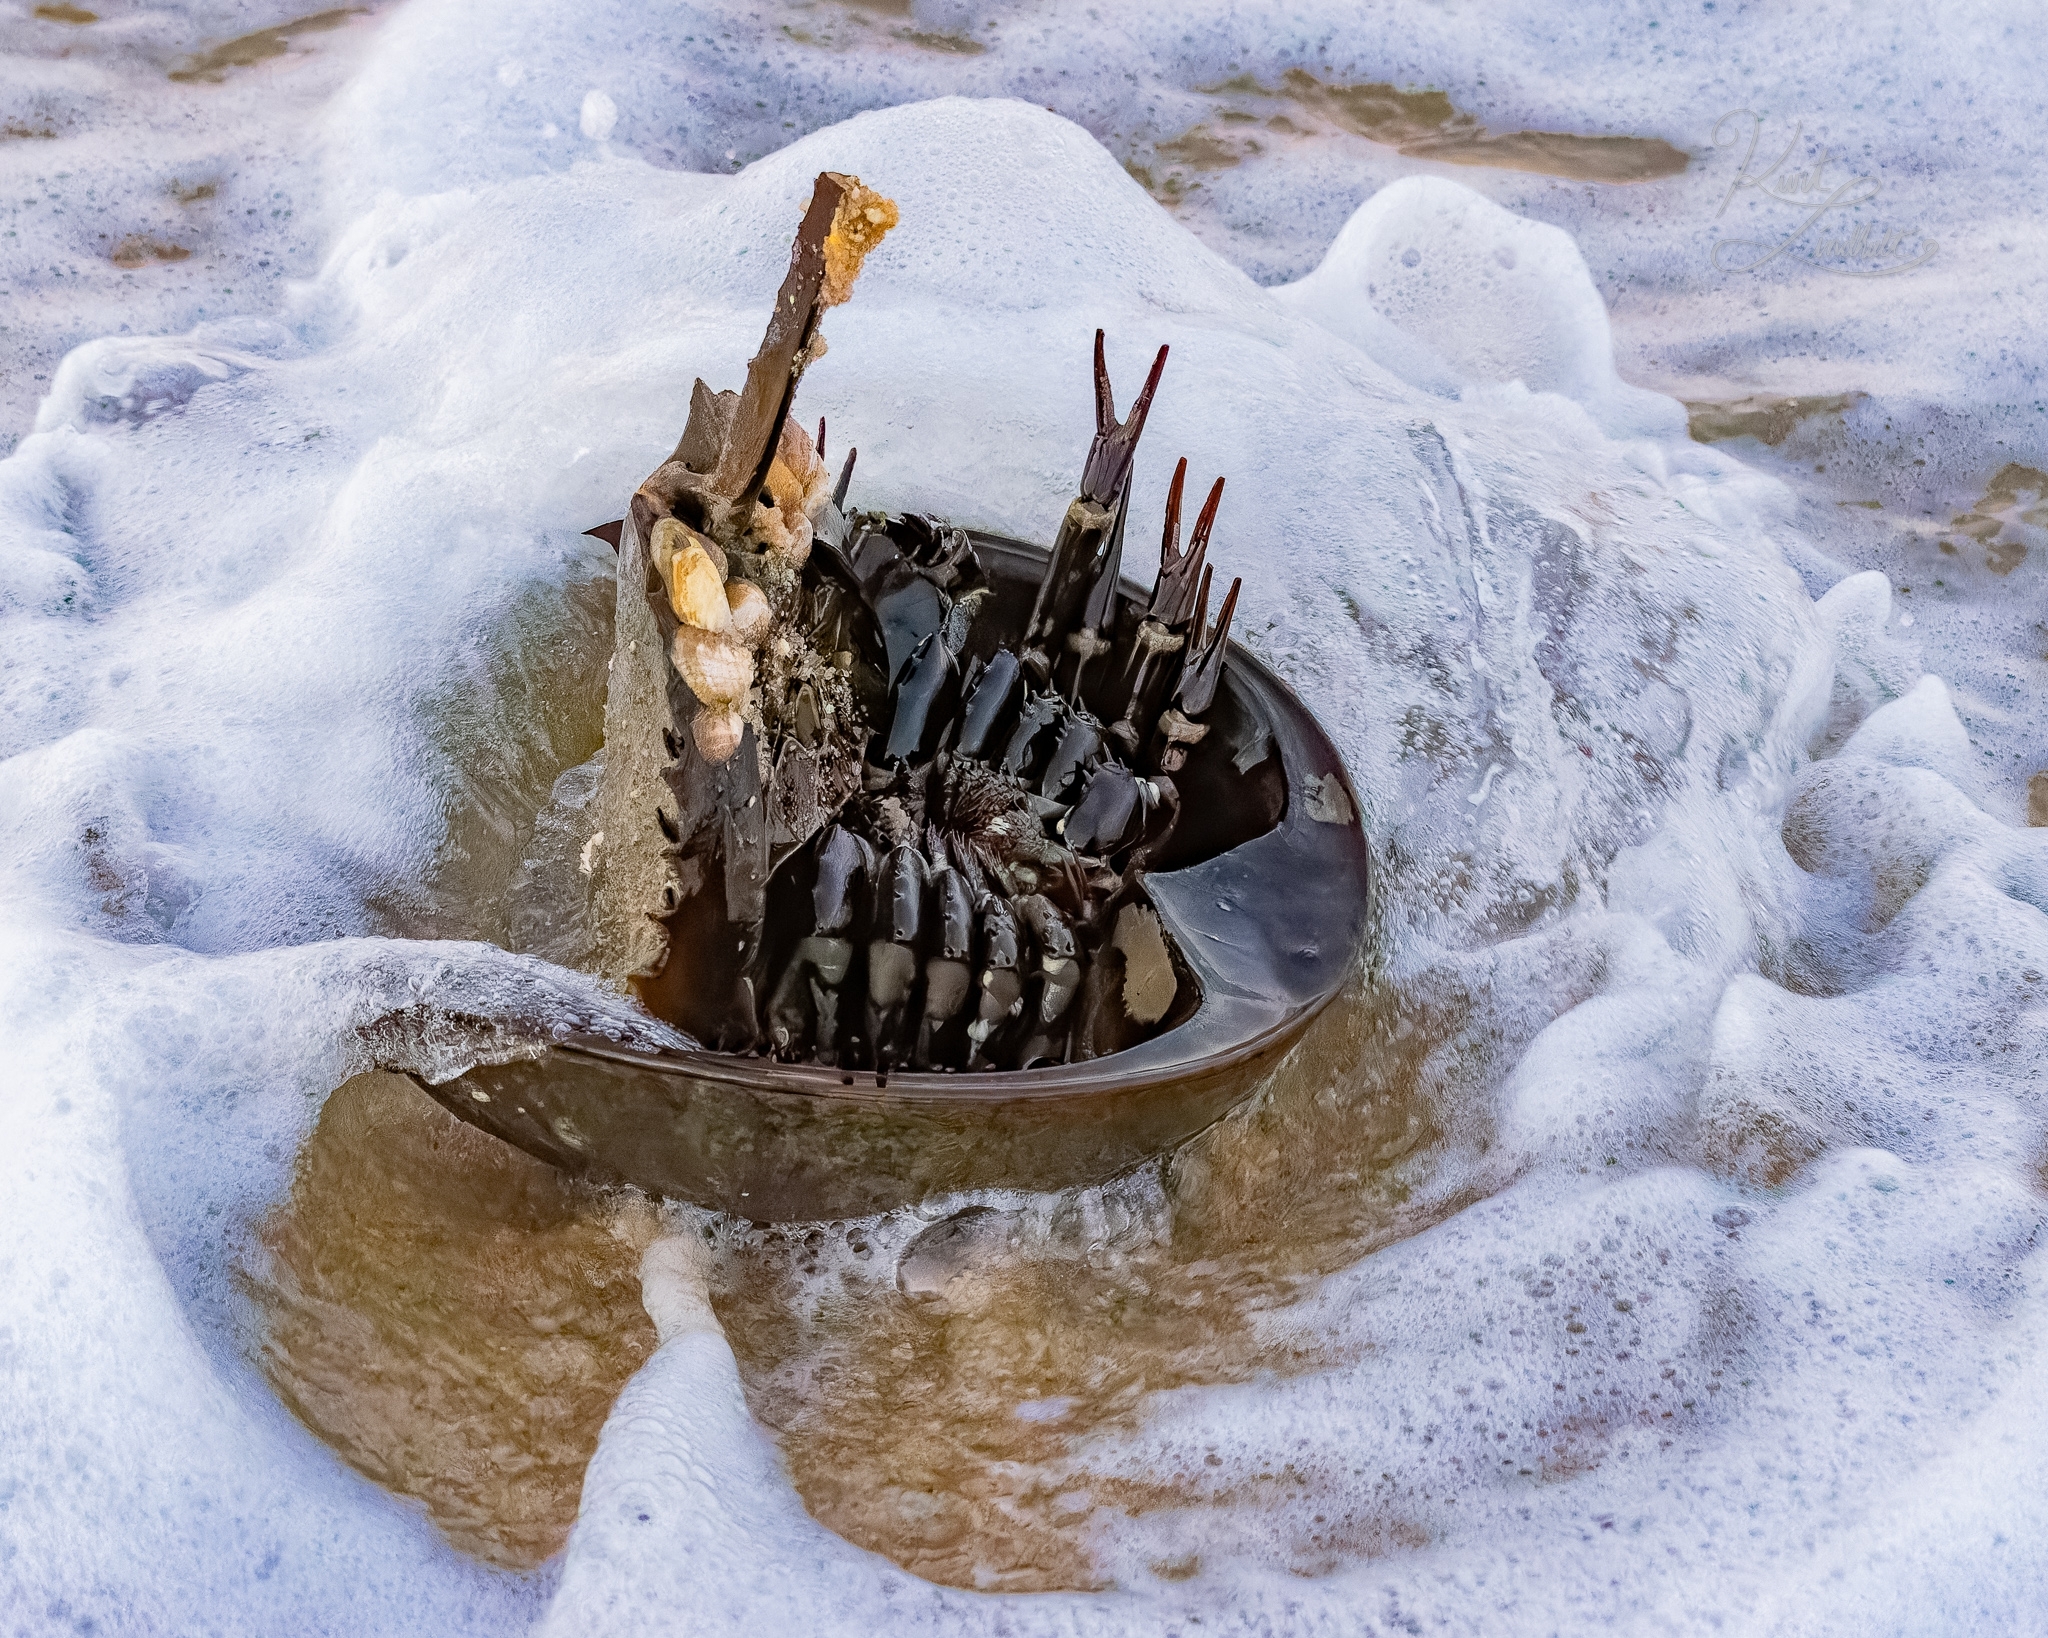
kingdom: Animalia
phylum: Arthropoda
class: Merostomata
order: Xiphosurida
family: Limulidae
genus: Limulus
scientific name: Limulus polyphemus
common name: Horseshoe crab
